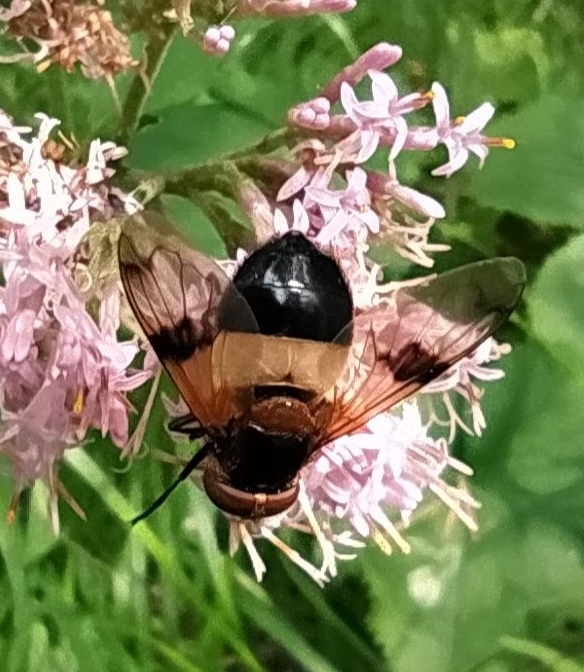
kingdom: Animalia
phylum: Arthropoda
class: Insecta
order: Diptera
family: Syrphidae
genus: Volucella
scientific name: Volucella pellucens
